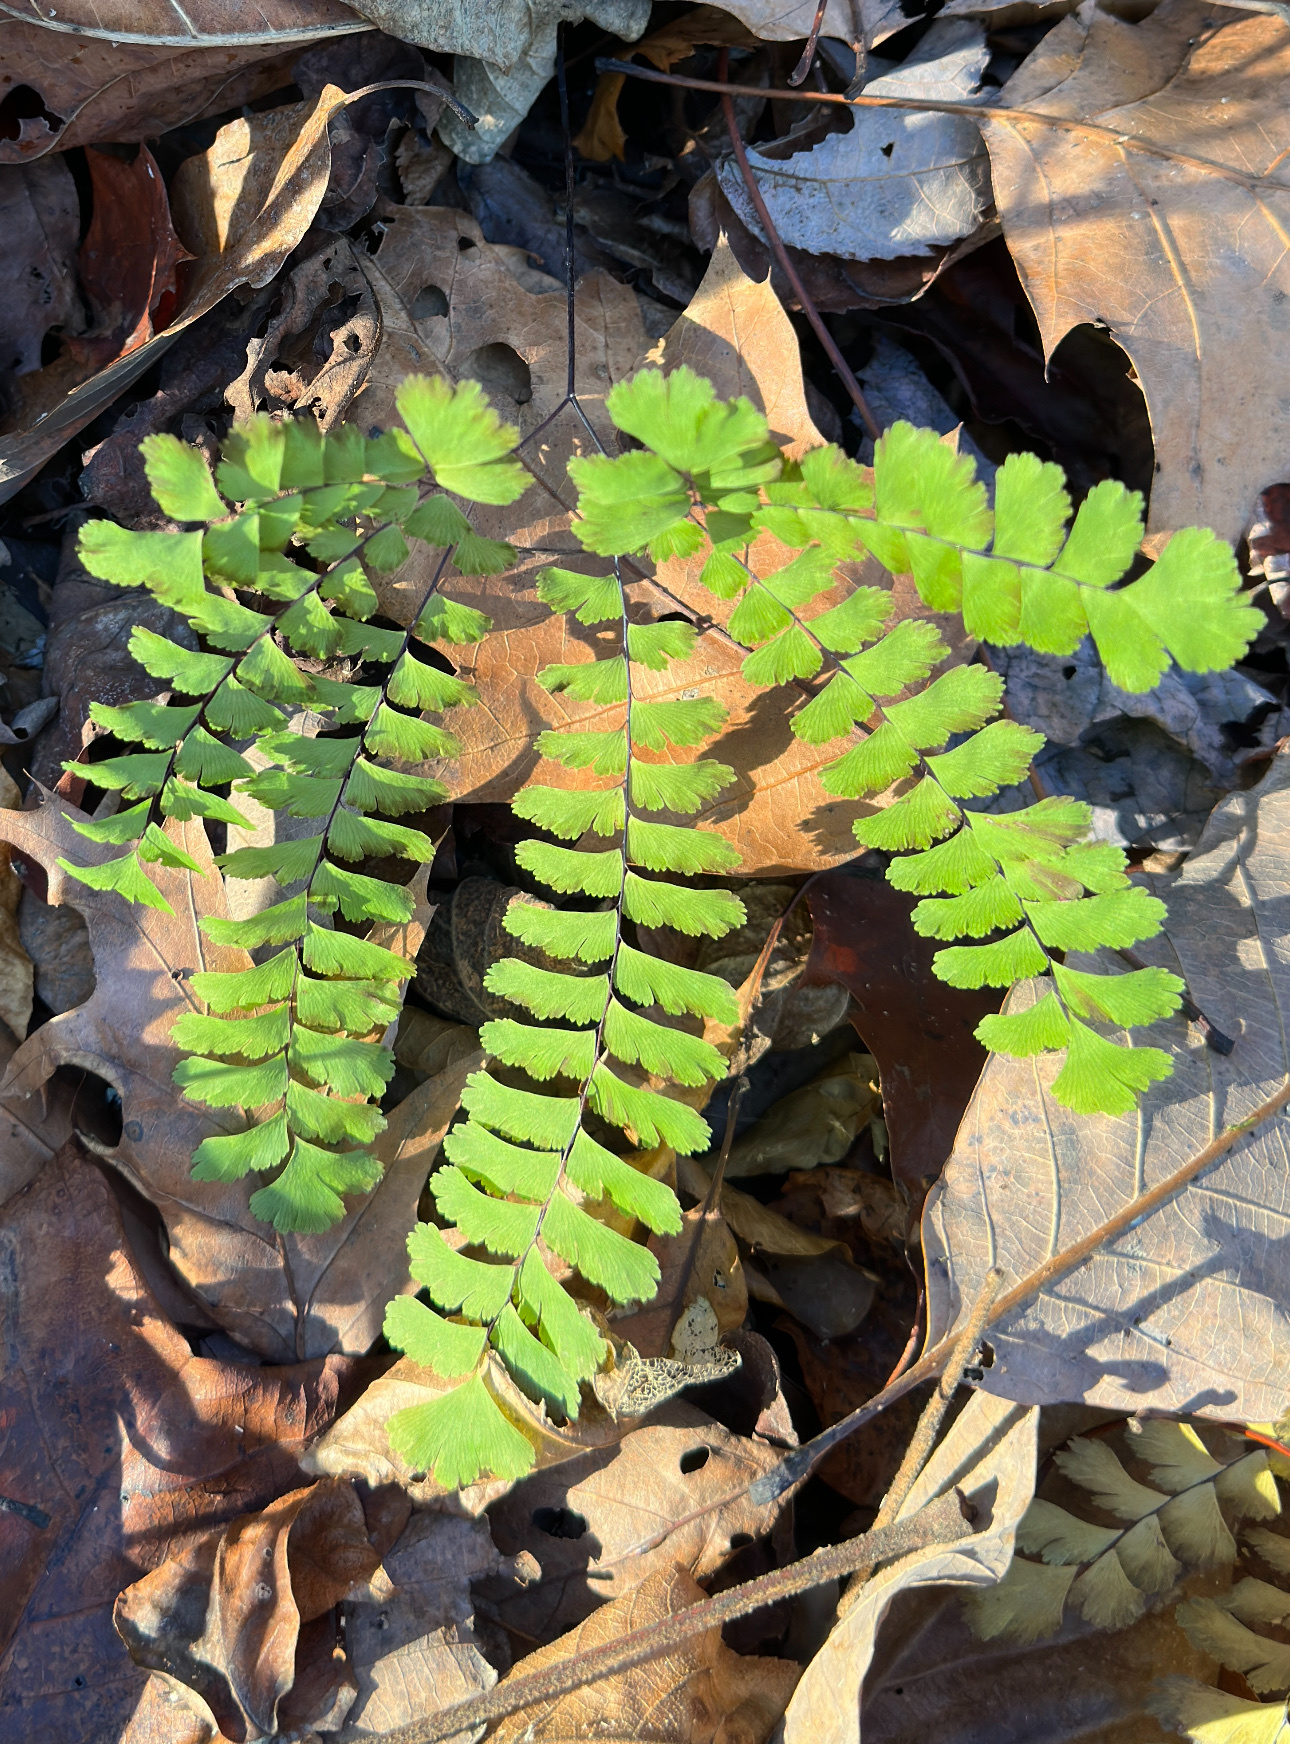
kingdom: Plantae
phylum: Tracheophyta
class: Polypodiopsida
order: Polypodiales
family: Pteridaceae
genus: Adiantum
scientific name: Adiantum pedatum
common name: Five-finger fern
